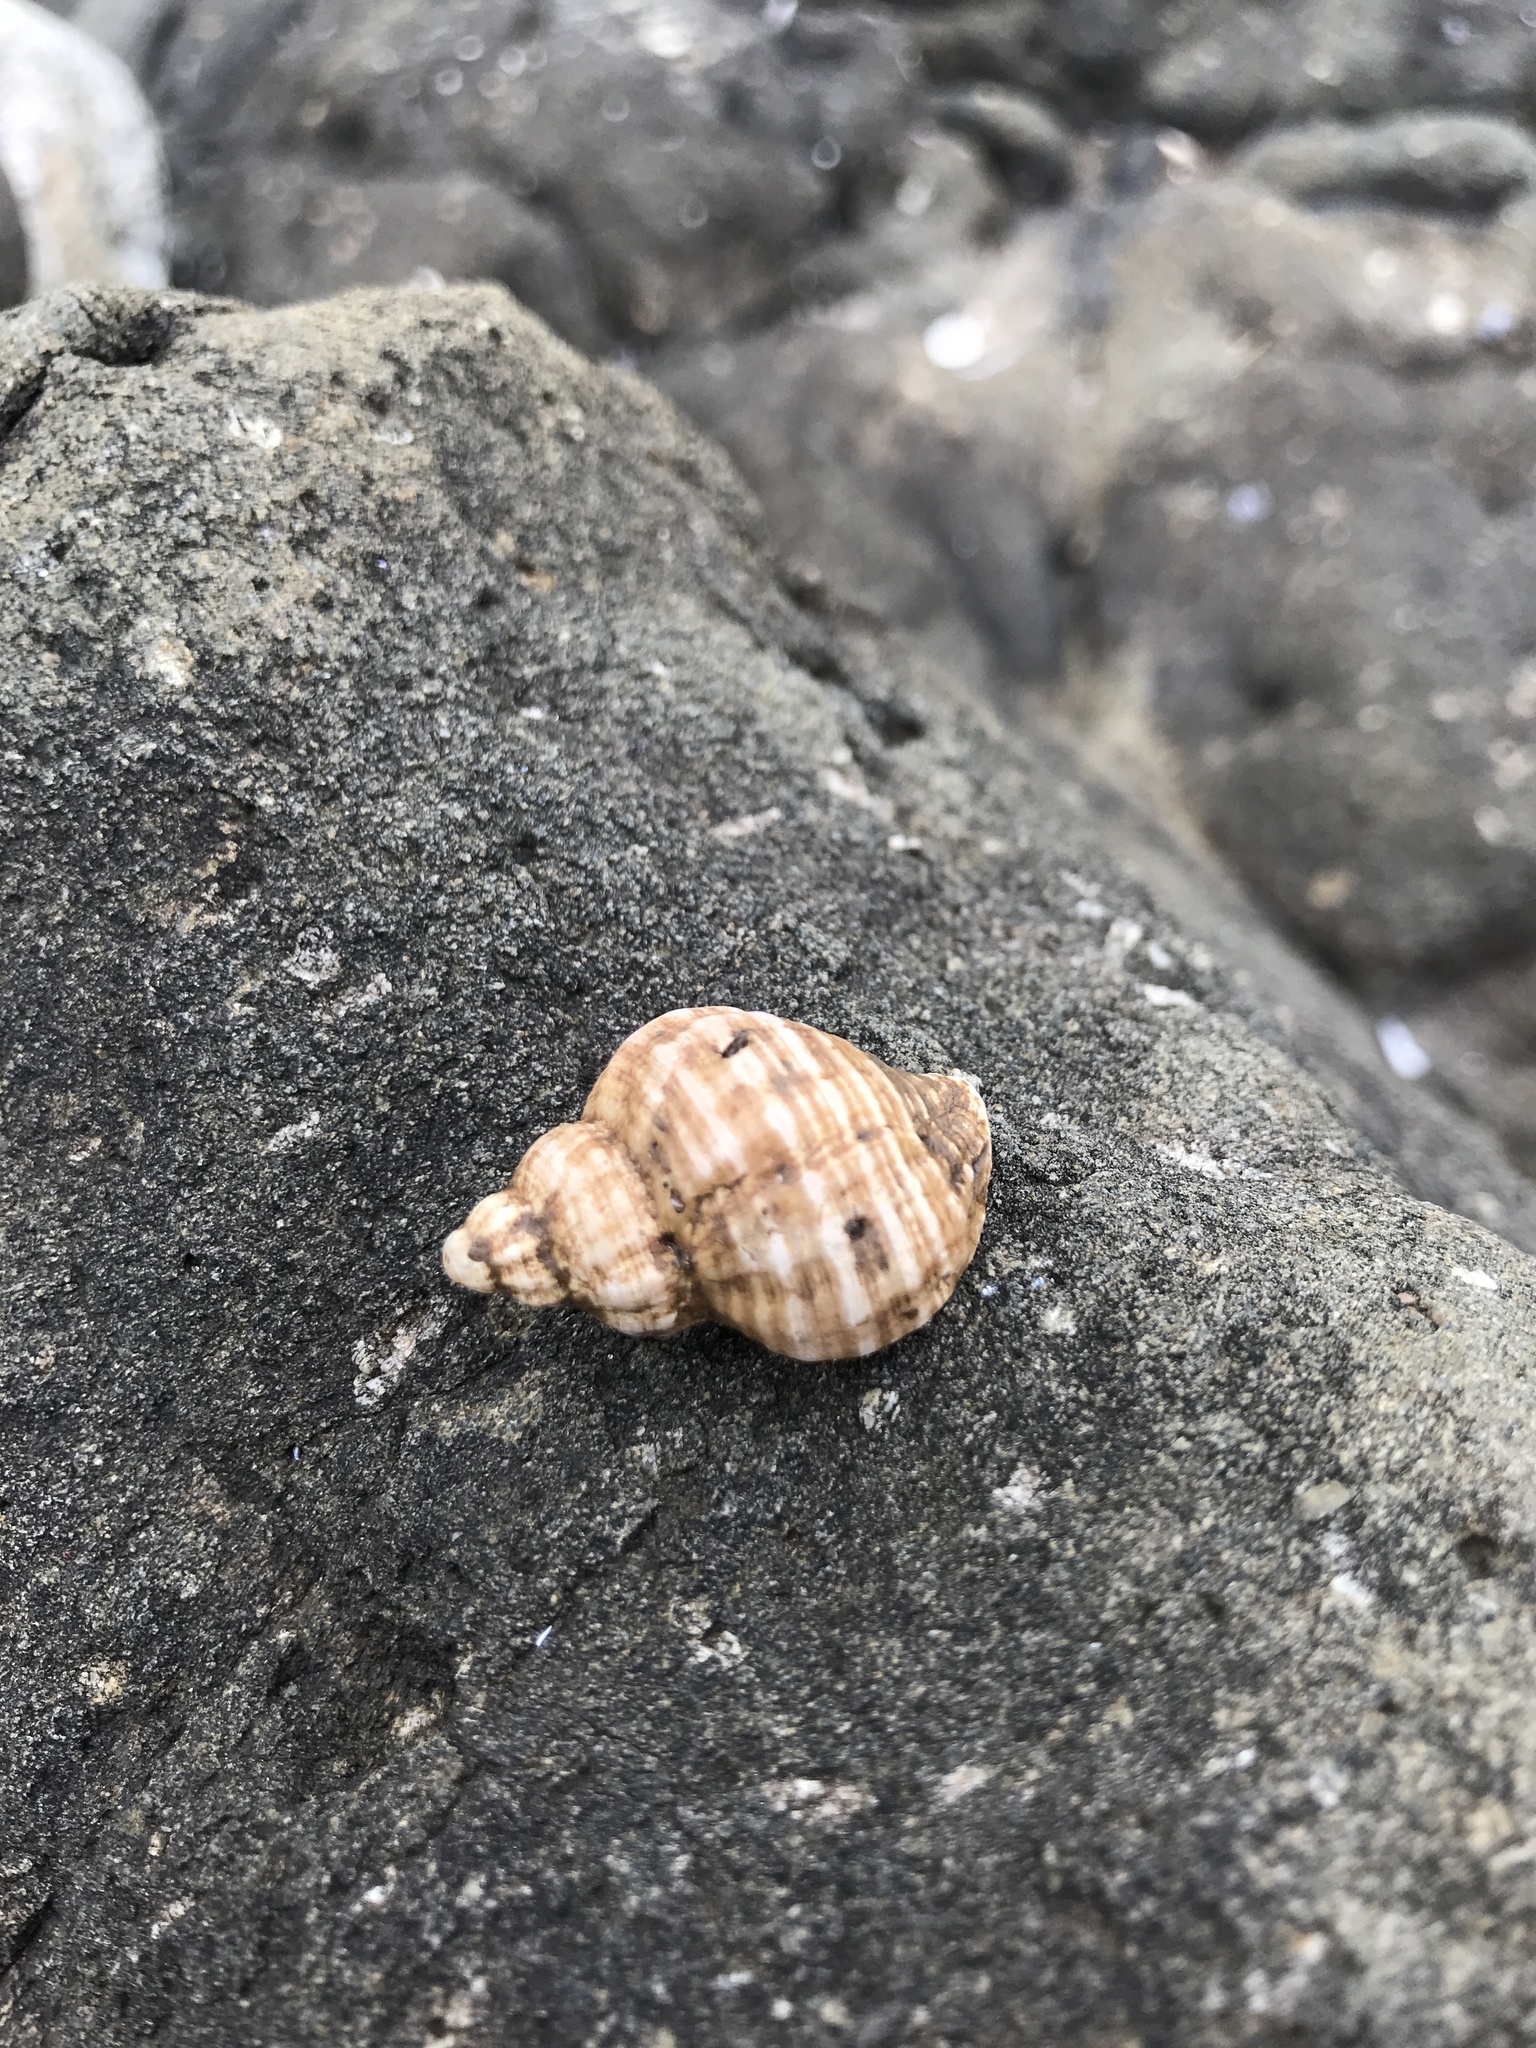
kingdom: Animalia
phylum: Mollusca
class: Gastropoda
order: Neogastropoda
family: Muricidae
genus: Urosalpinx
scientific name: Urosalpinx haneti
